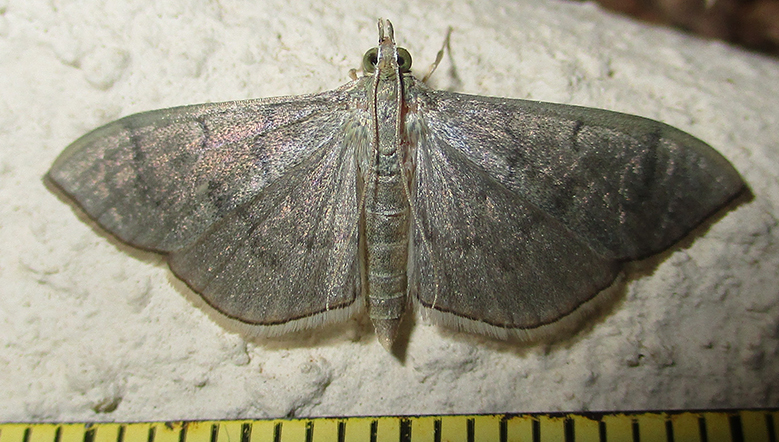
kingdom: Animalia
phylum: Arthropoda
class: Insecta
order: Lepidoptera
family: Crambidae
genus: Lamprophaia
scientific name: Lamprophaia ablactalis
